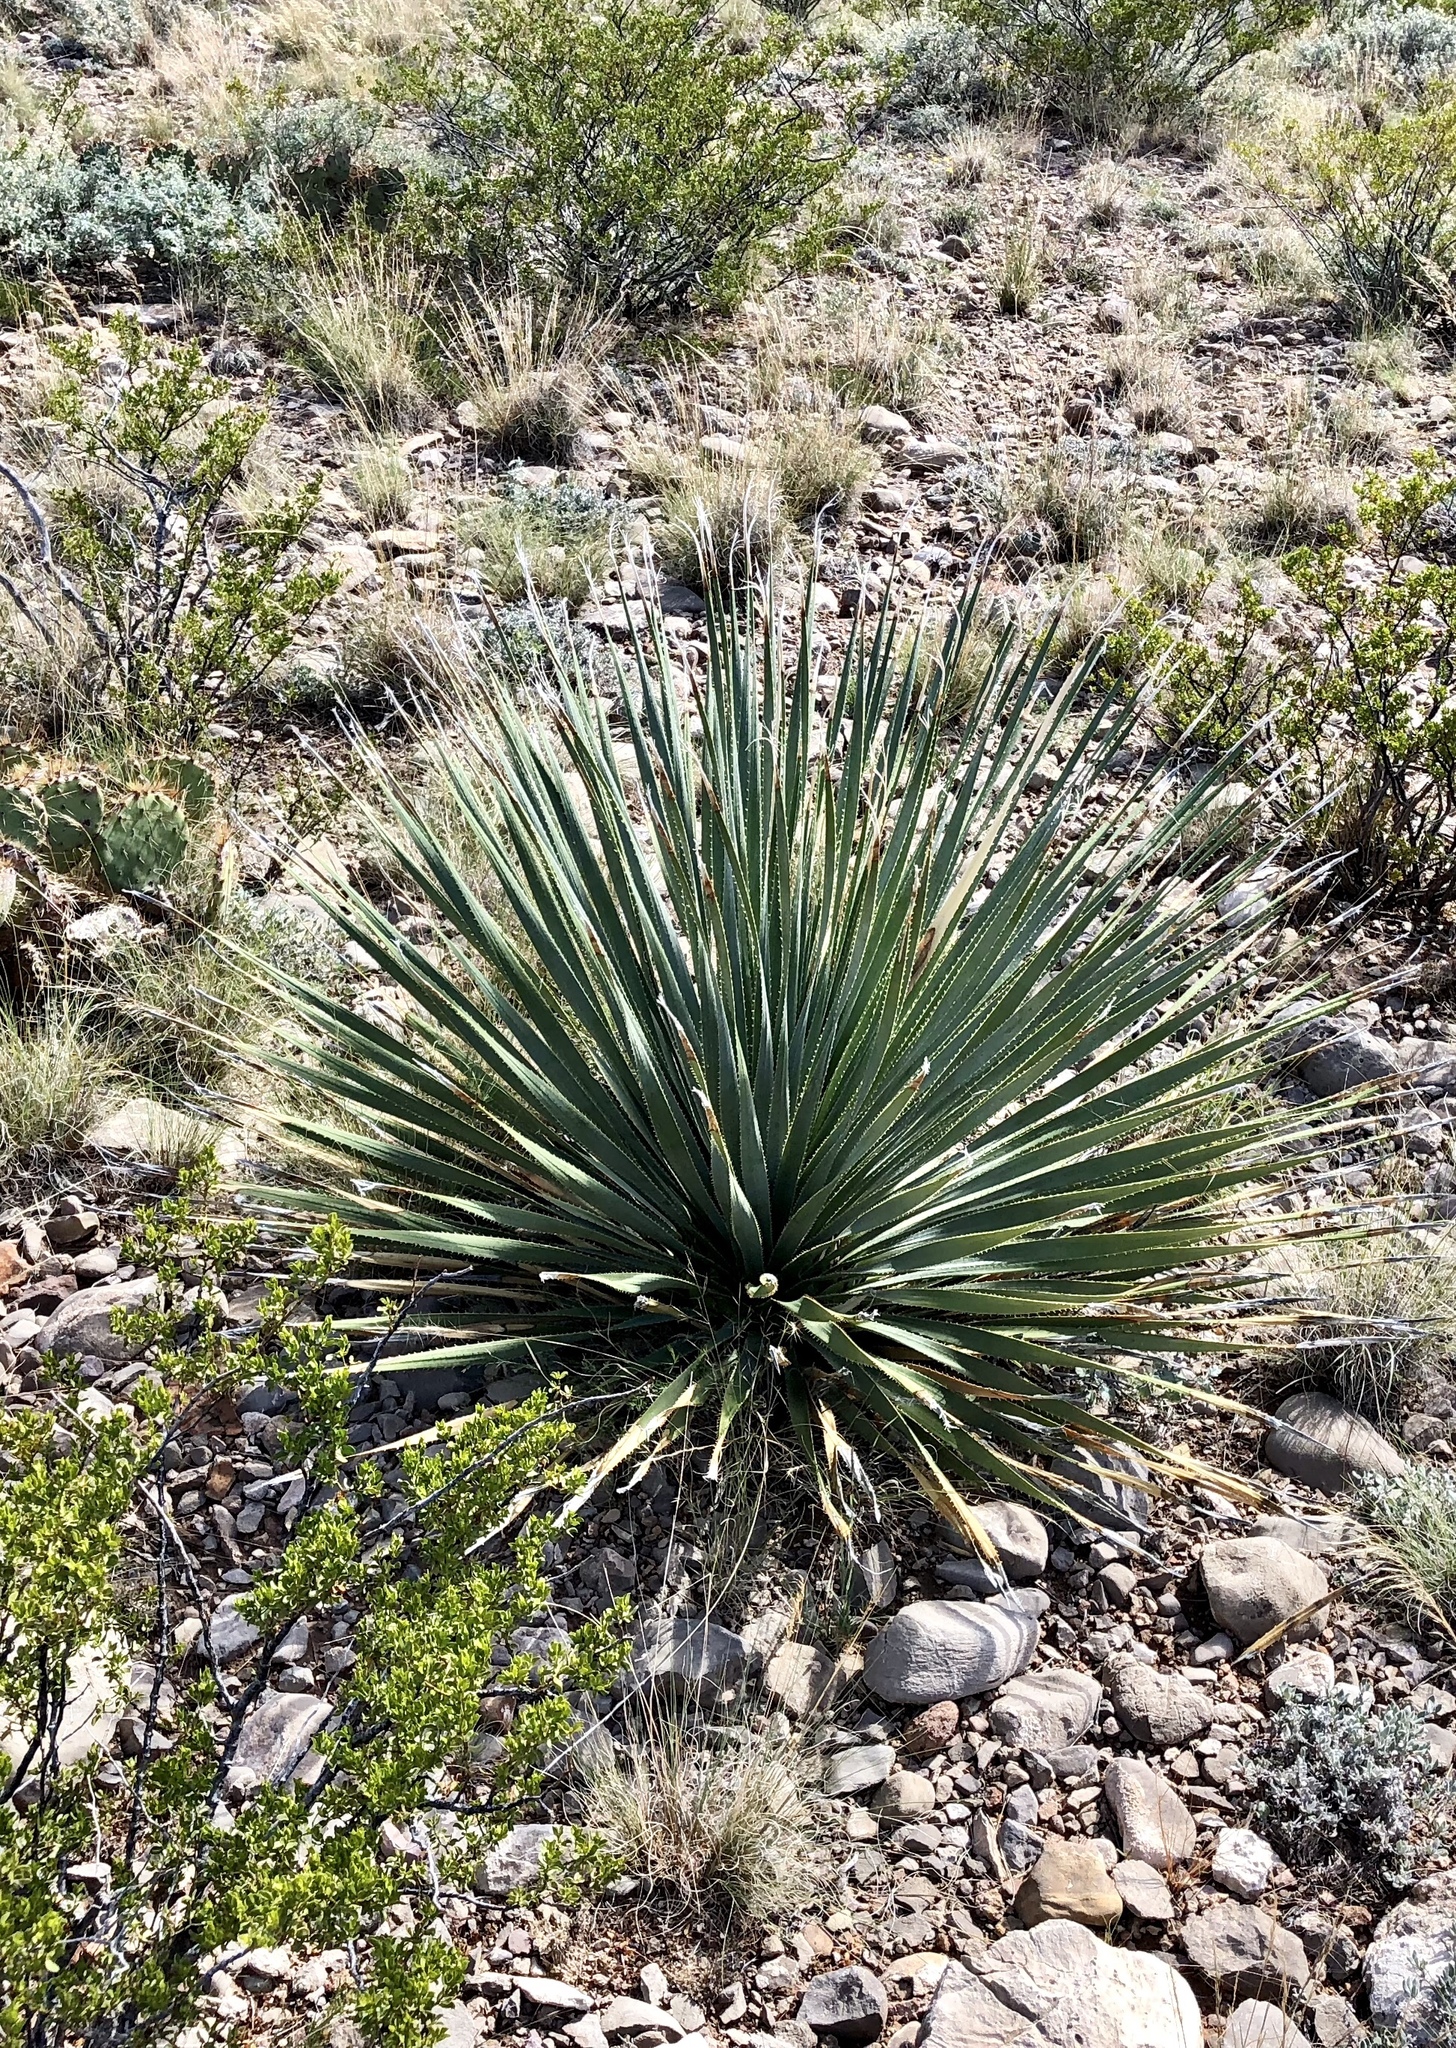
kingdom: Plantae
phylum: Tracheophyta
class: Liliopsida
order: Asparagales
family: Asparagaceae
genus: Dasylirion
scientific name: Dasylirion wheeleri
